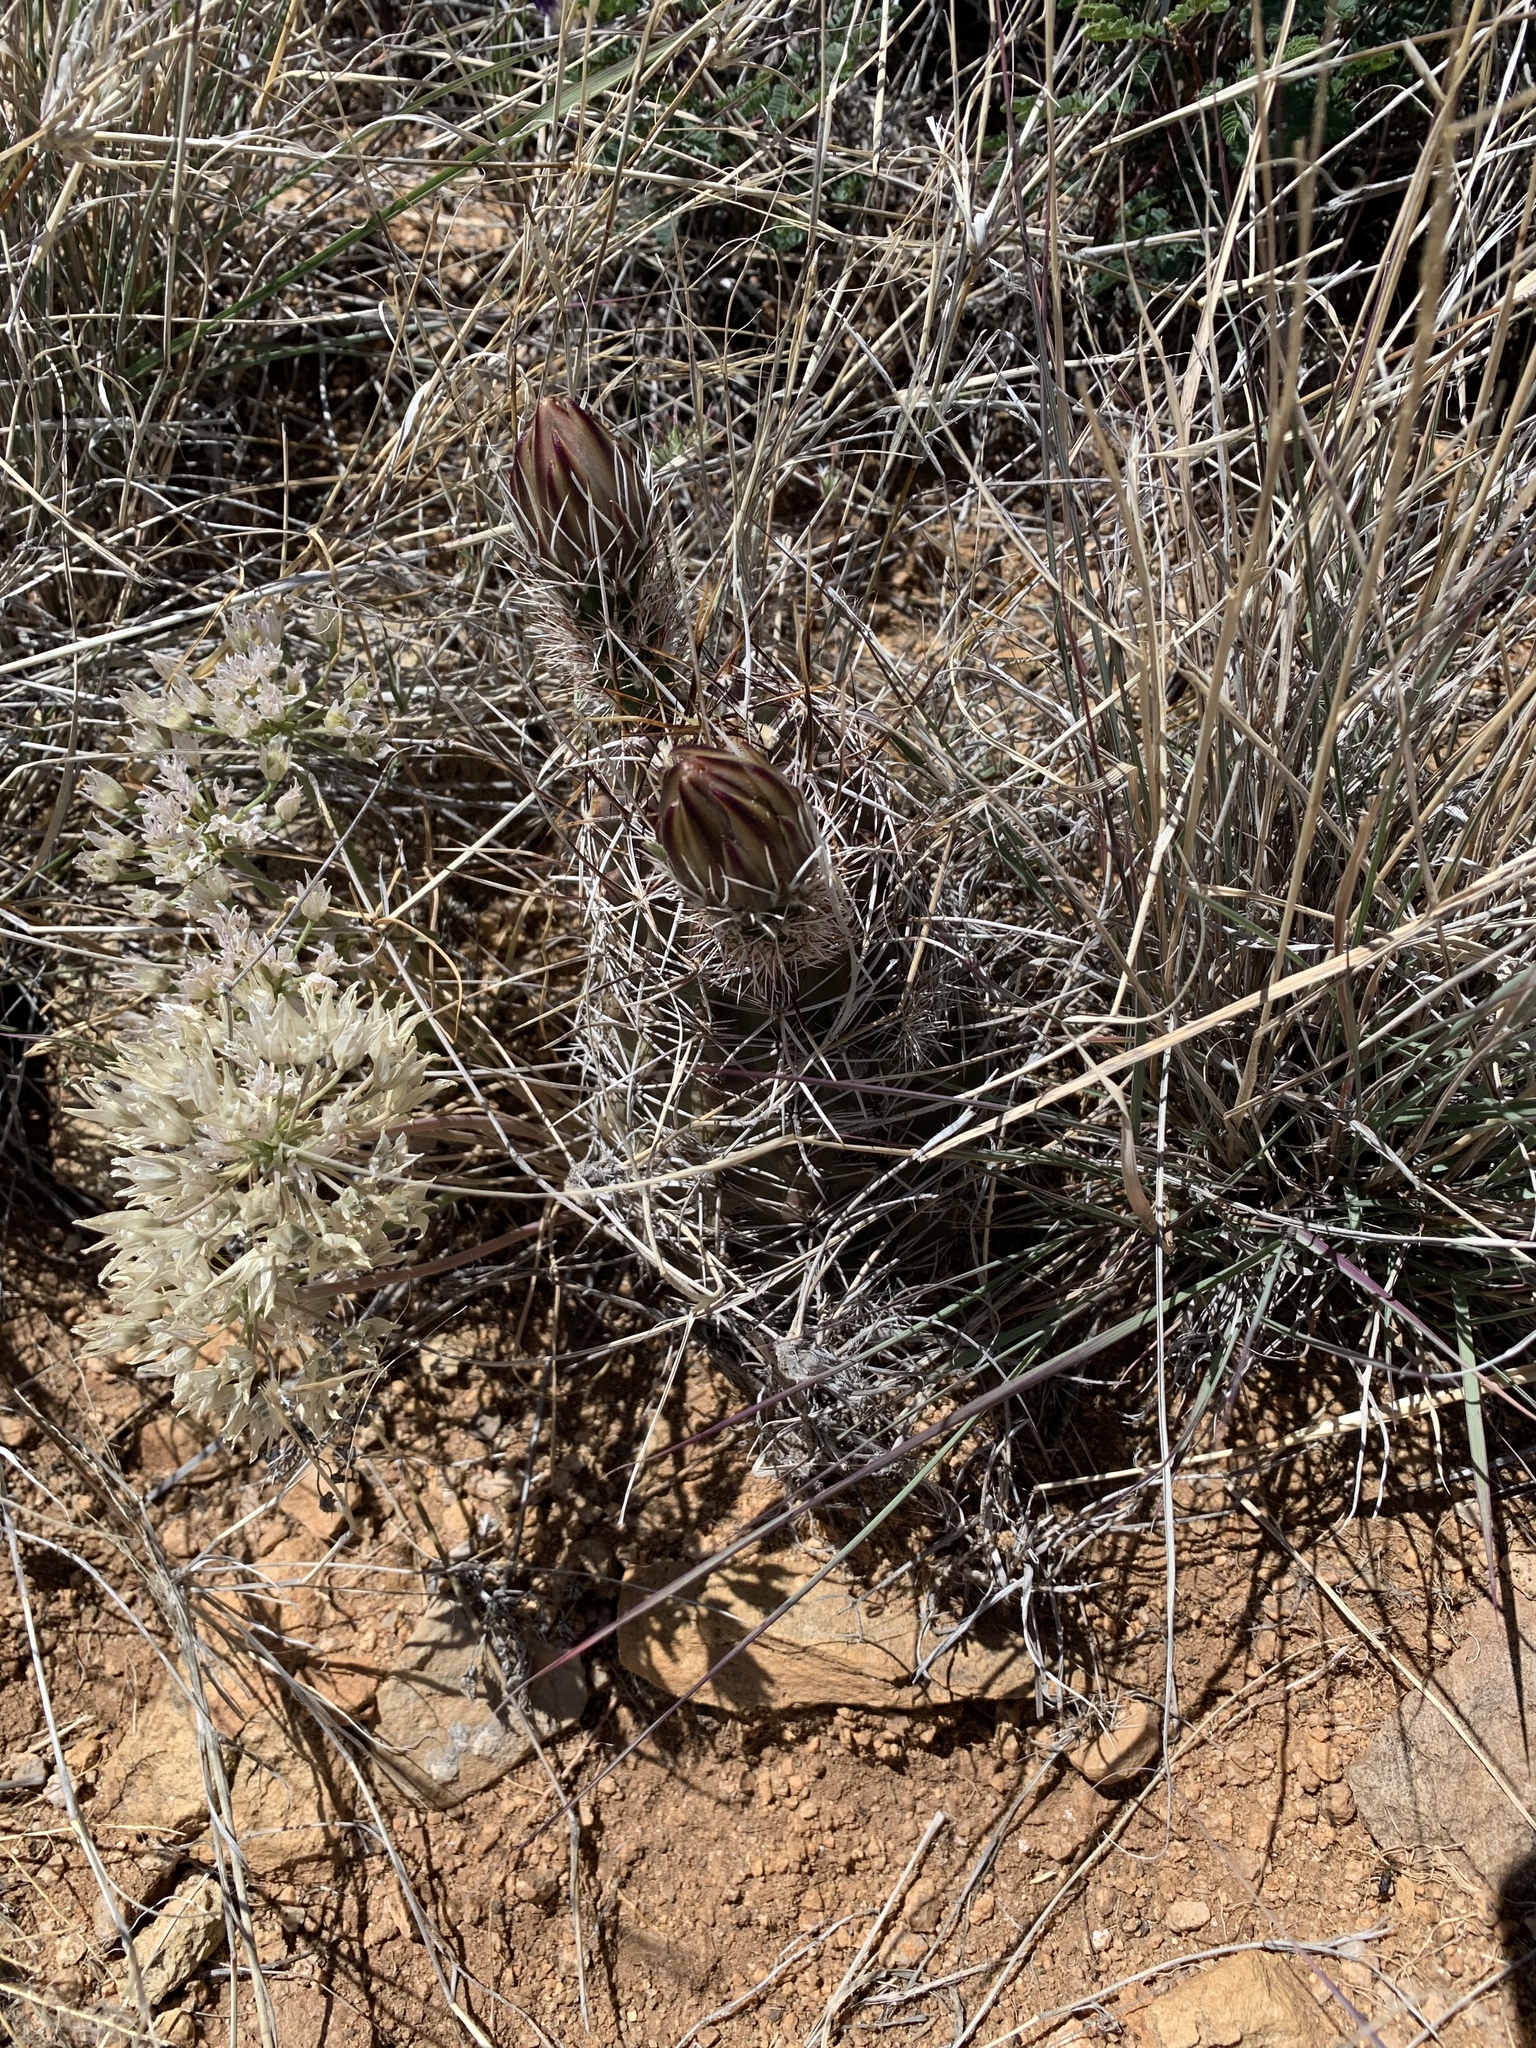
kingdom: Plantae
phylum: Tracheophyta
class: Magnoliopsida
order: Caryophyllales
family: Cactaceae
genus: Echinocereus
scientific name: Echinocereus fendleri
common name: Fendler's hedgehog cactus
